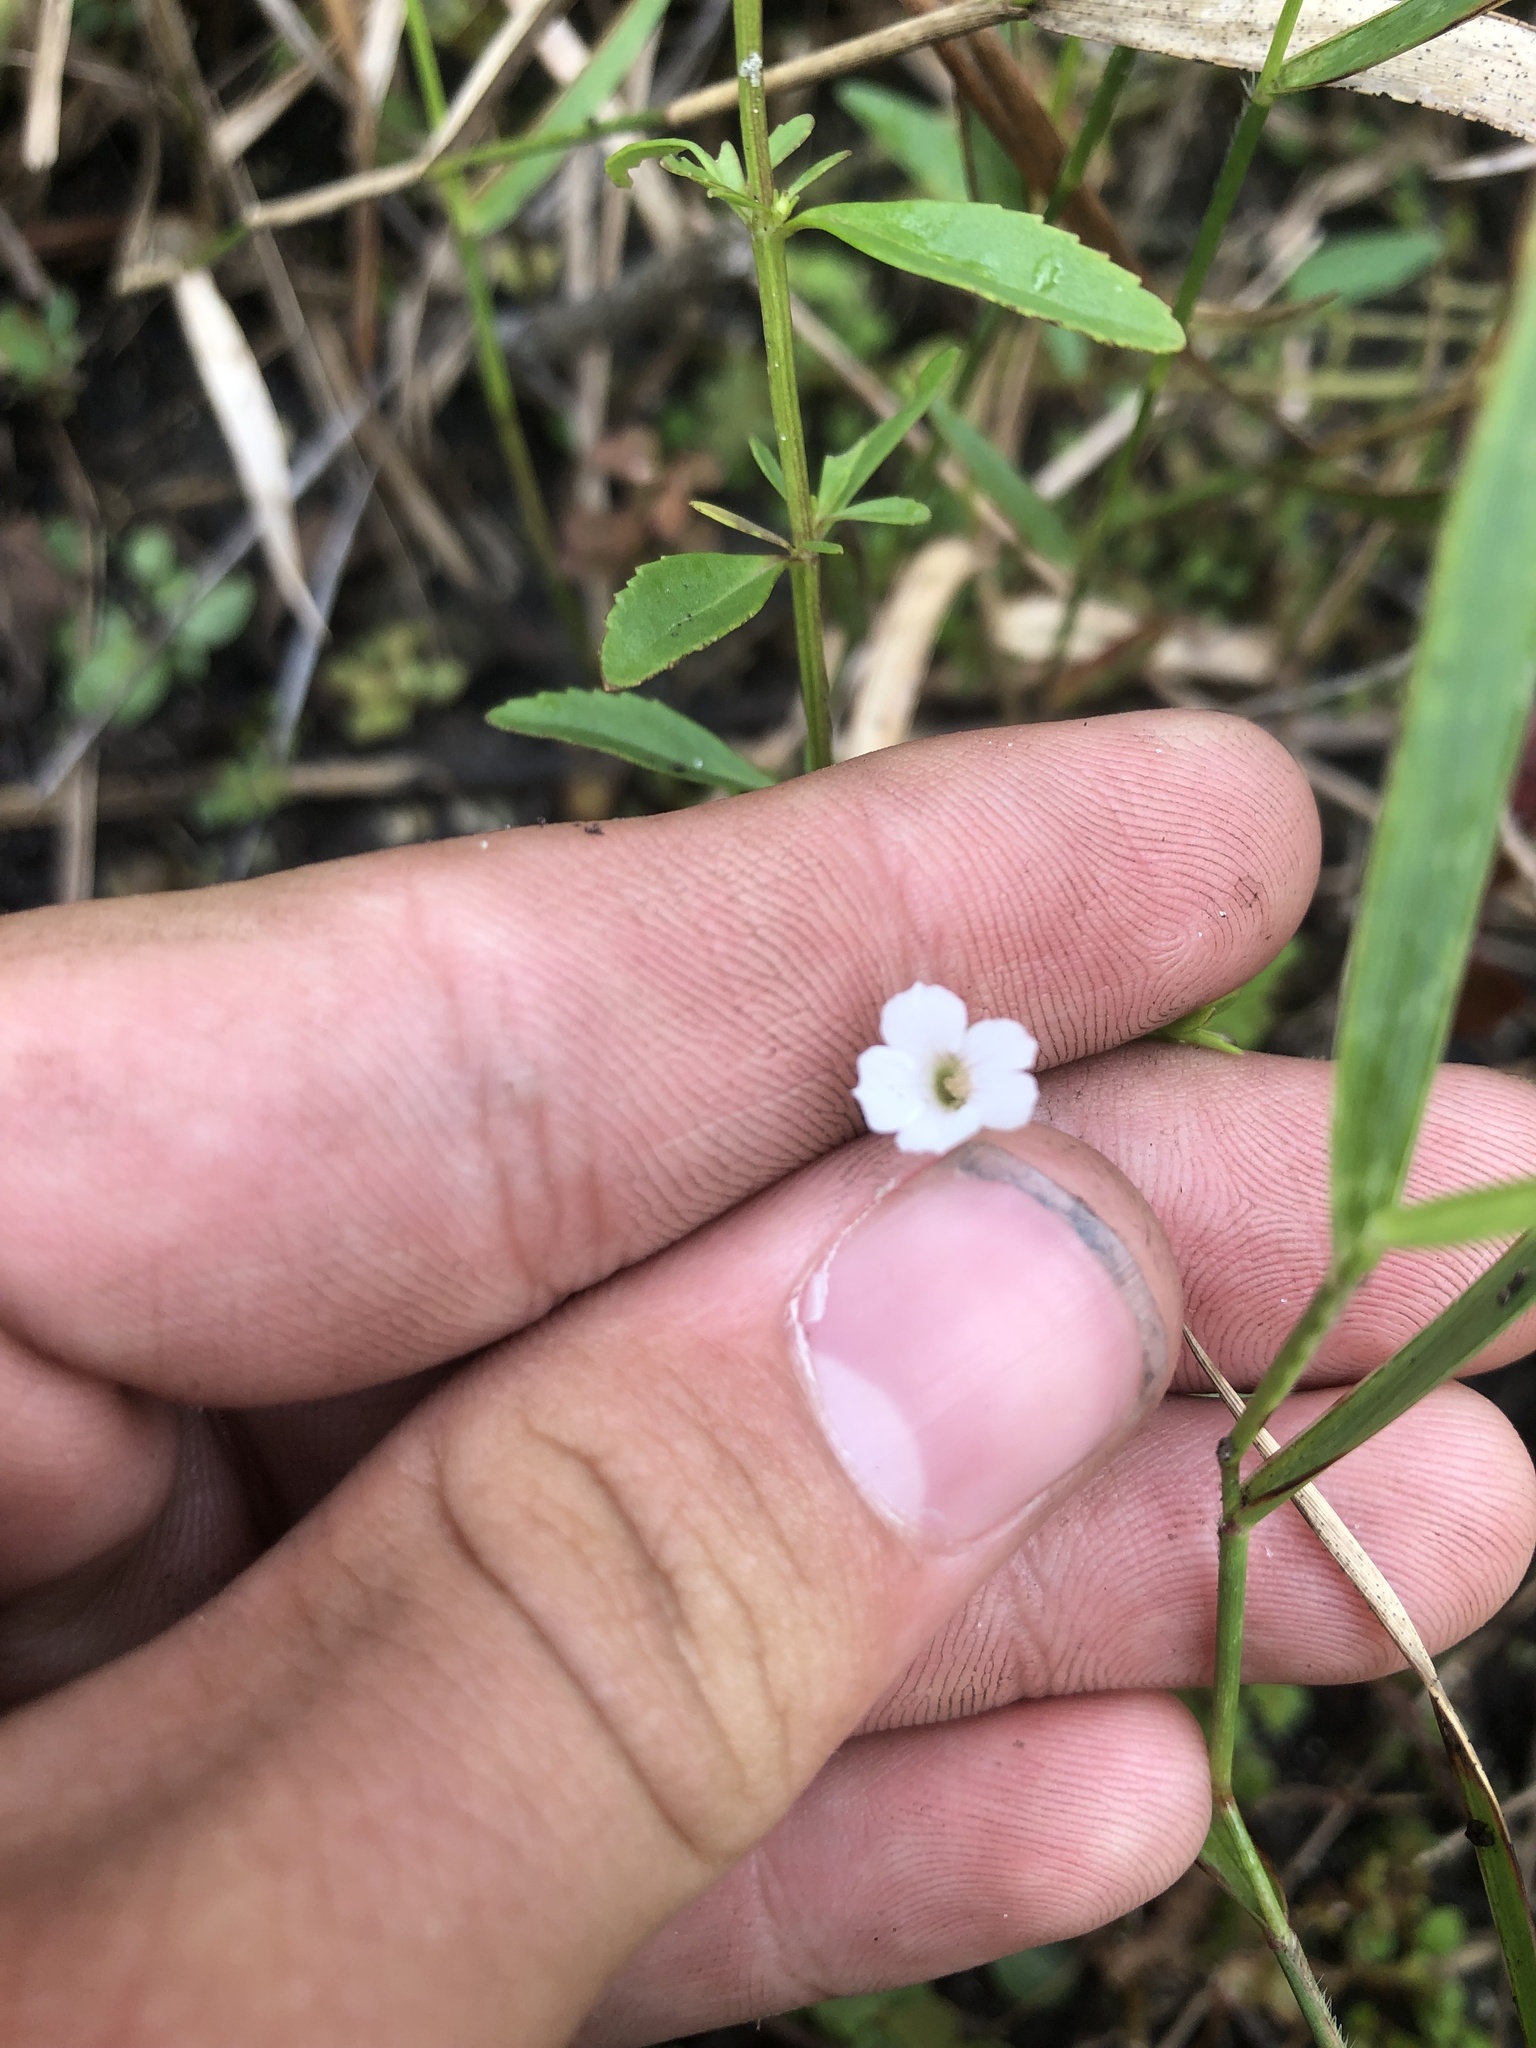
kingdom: Plantae
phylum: Tracheophyta
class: Magnoliopsida
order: Lamiales
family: Plantaginaceae
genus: Mecardonia
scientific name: Mecardonia acuminata
